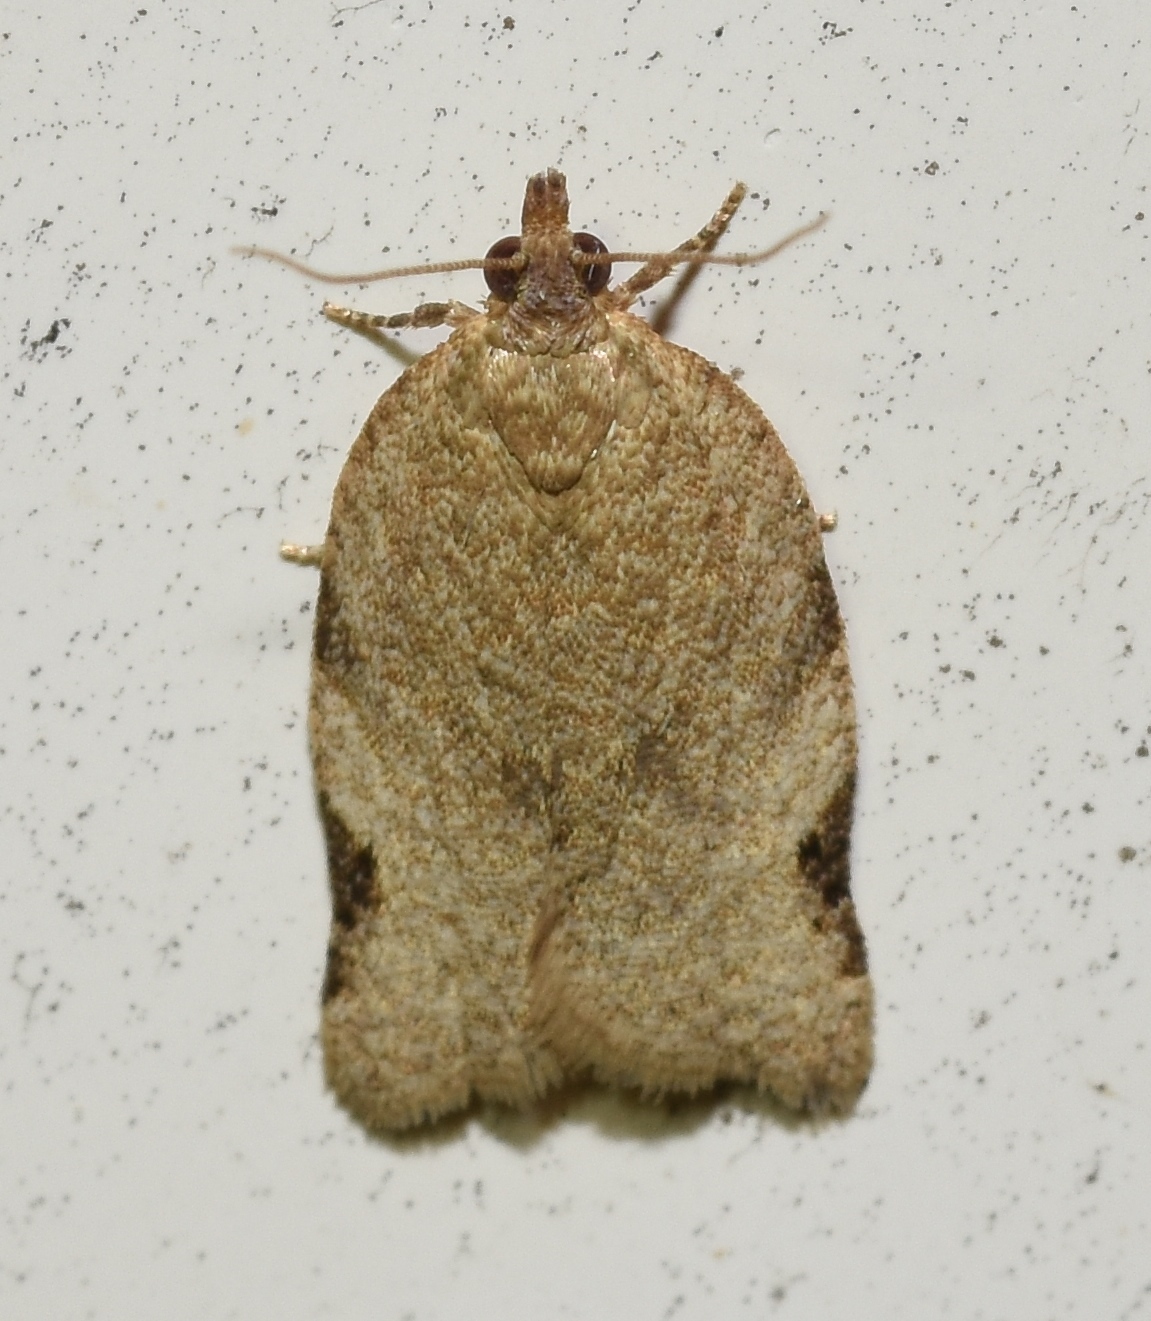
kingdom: Animalia
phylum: Arthropoda
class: Insecta
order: Lepidoptera
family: Tortricidae
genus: Clepsis
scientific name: Clepsis virescana
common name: Greenish apple moth
